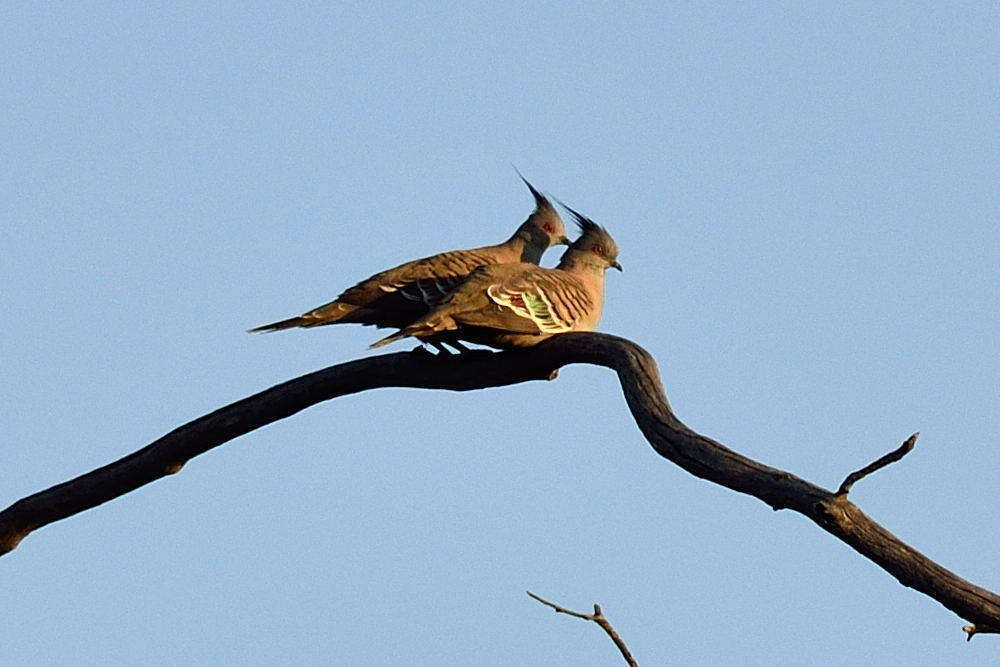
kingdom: Animalia
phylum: Chordata
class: Aves
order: Columbiformes
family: Columbidae
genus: Ocyphaps
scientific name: Ocyphaps lophotes
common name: Crested pigeon
